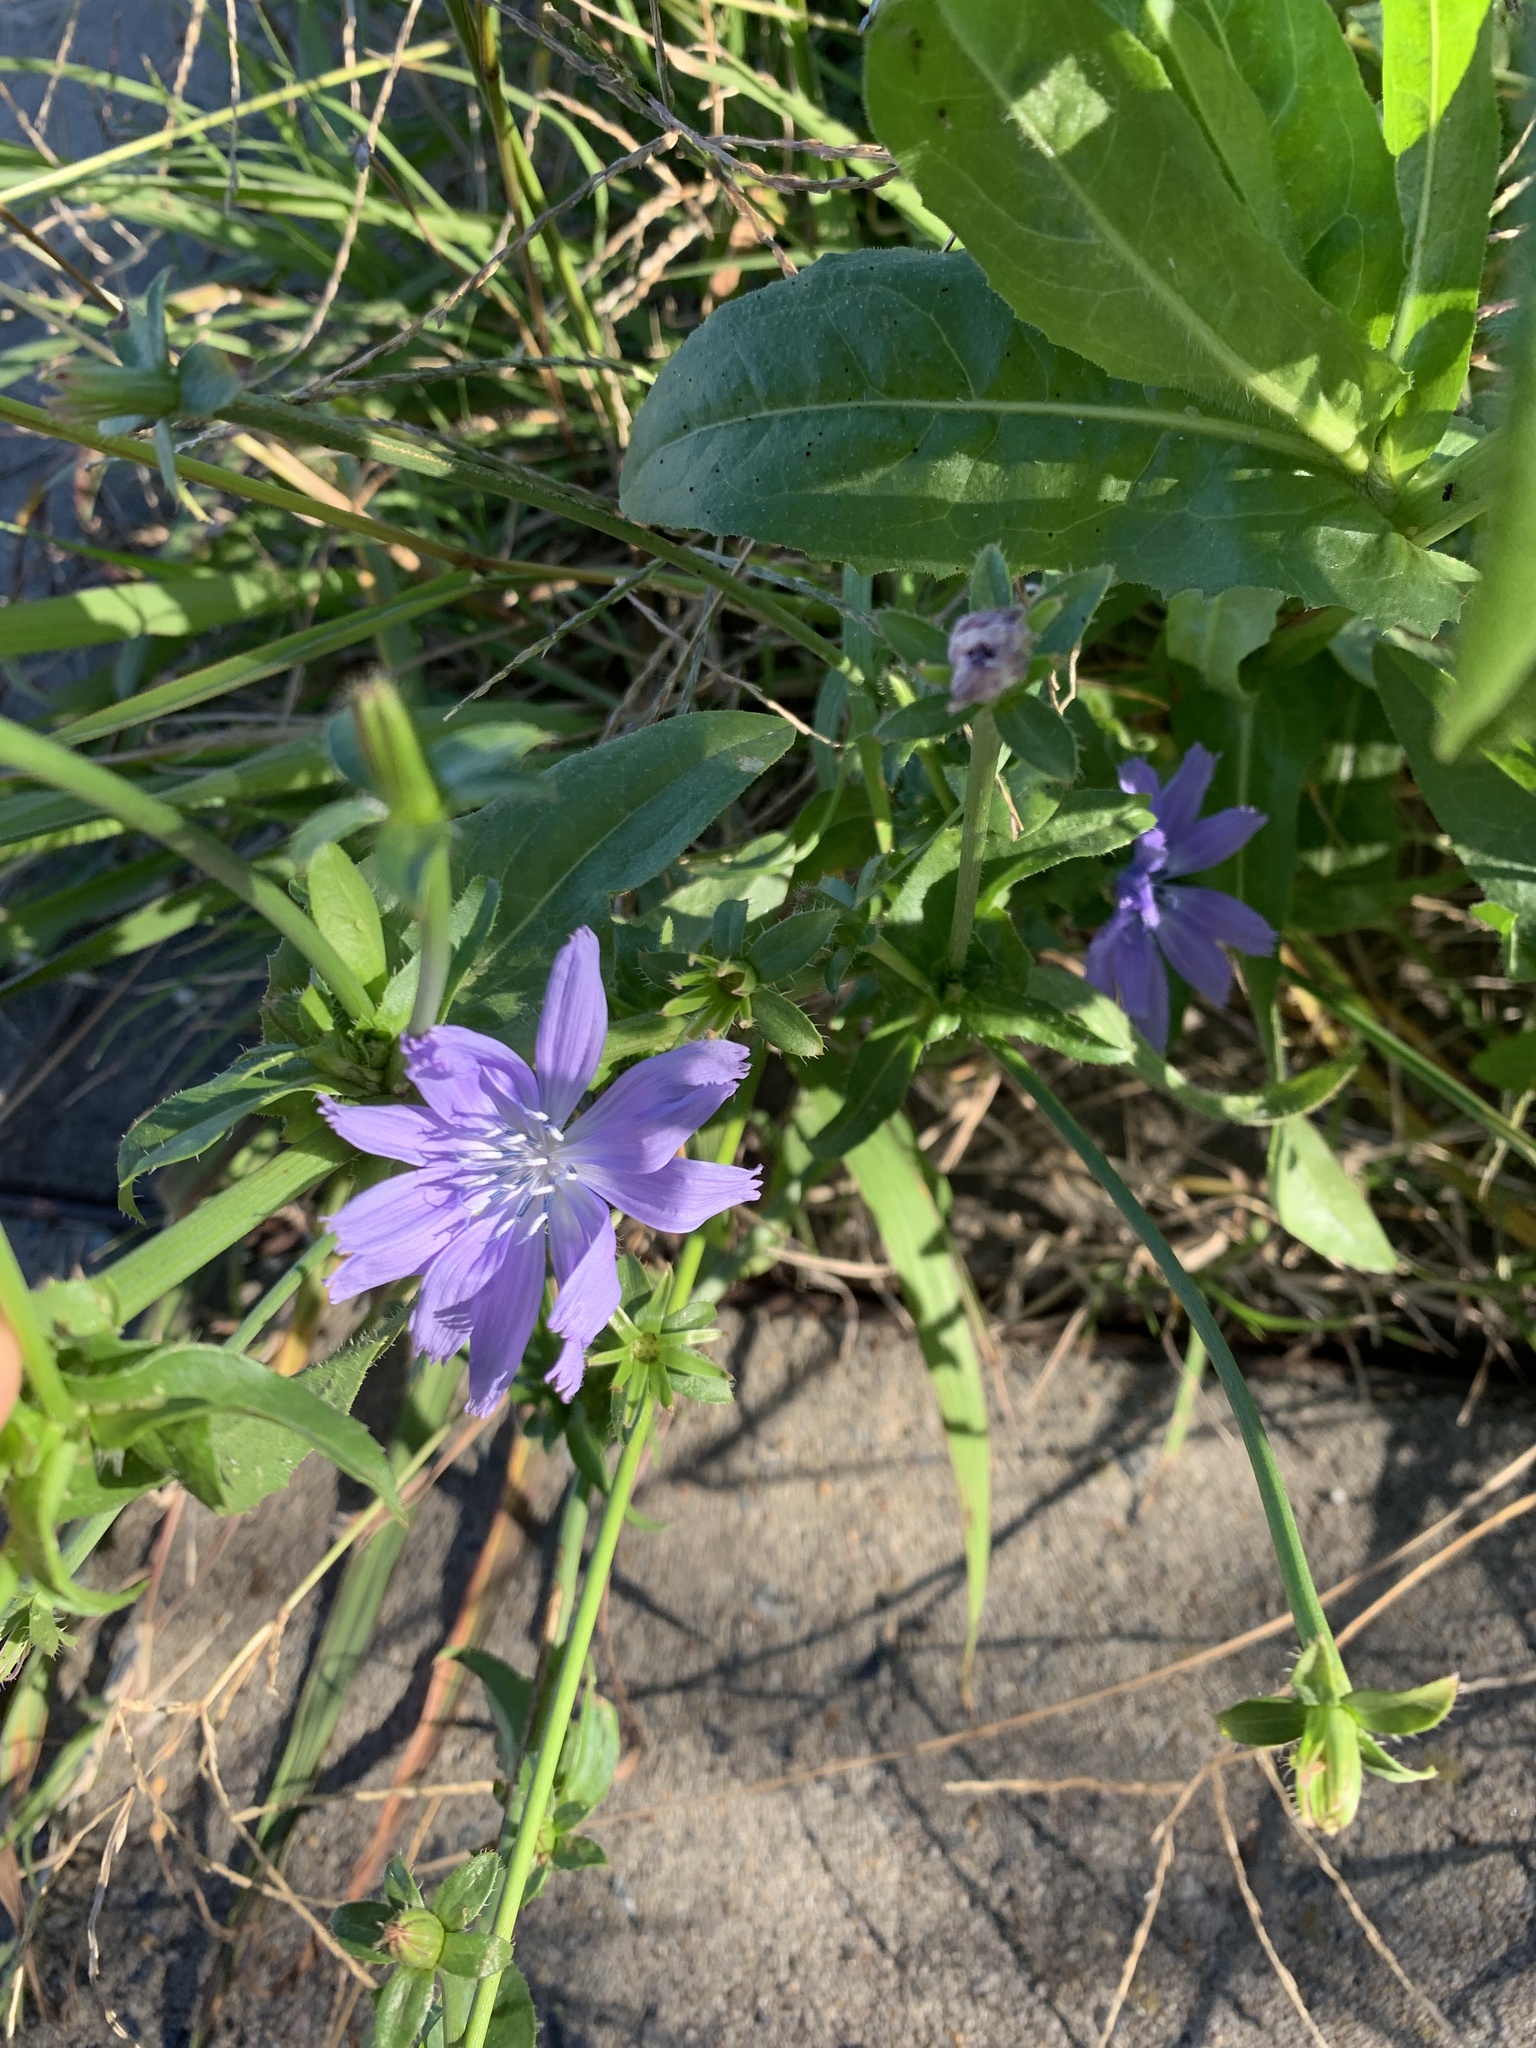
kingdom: Plantae
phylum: Tracheophyta
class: Magnoliopsida
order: Asterales
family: Asteraceae
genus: Cichorium
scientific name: Cichorium intybus
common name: Chicory
